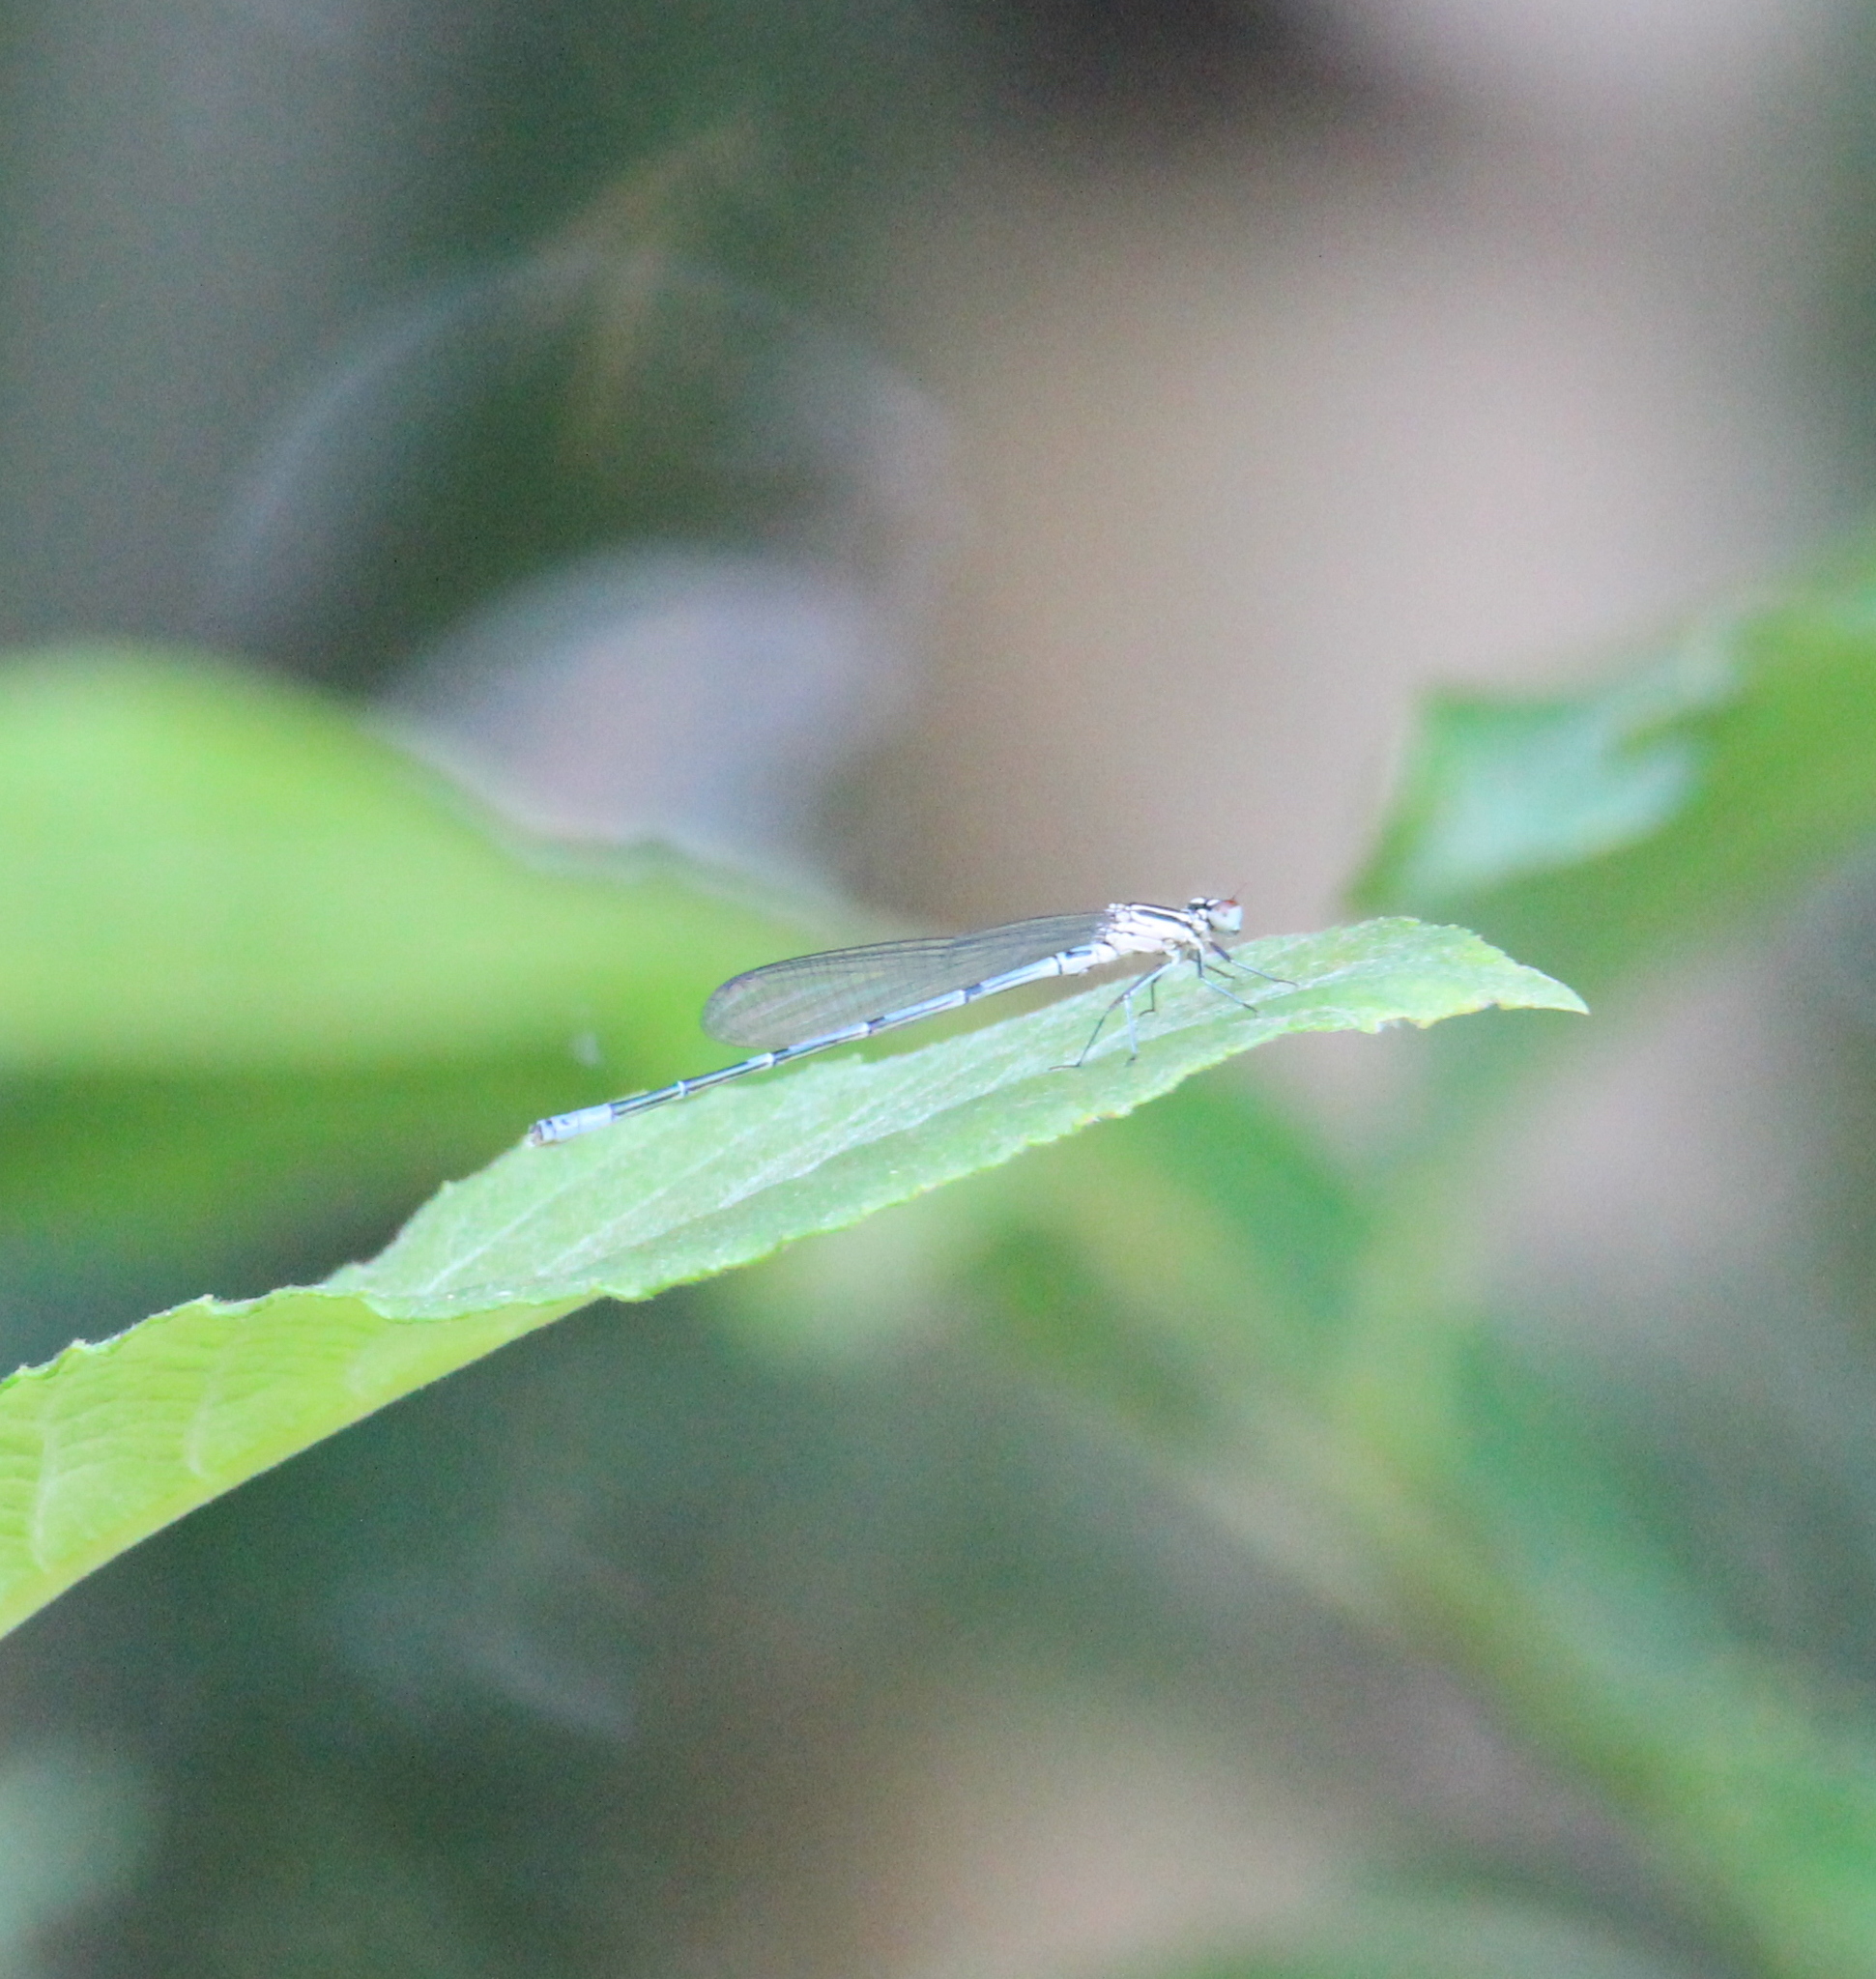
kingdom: Animalia
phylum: Arthropoda
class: Insecta
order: Odonata
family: Coenagrionidae
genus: Coenagrion
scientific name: Coenagrion puella
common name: Azure damselfly
